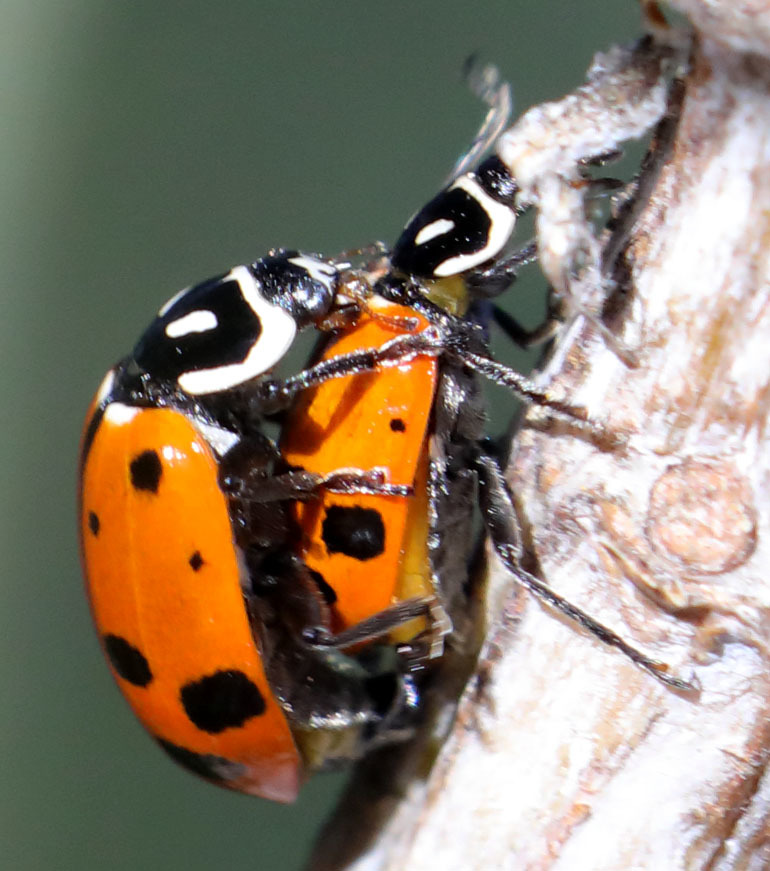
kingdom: Animalia
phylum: Arthropoda
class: Insecta
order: Coleoptera
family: Coccinellidae
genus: Hippodamia
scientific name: Hippodamia convergens
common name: Convergent lady beetle
